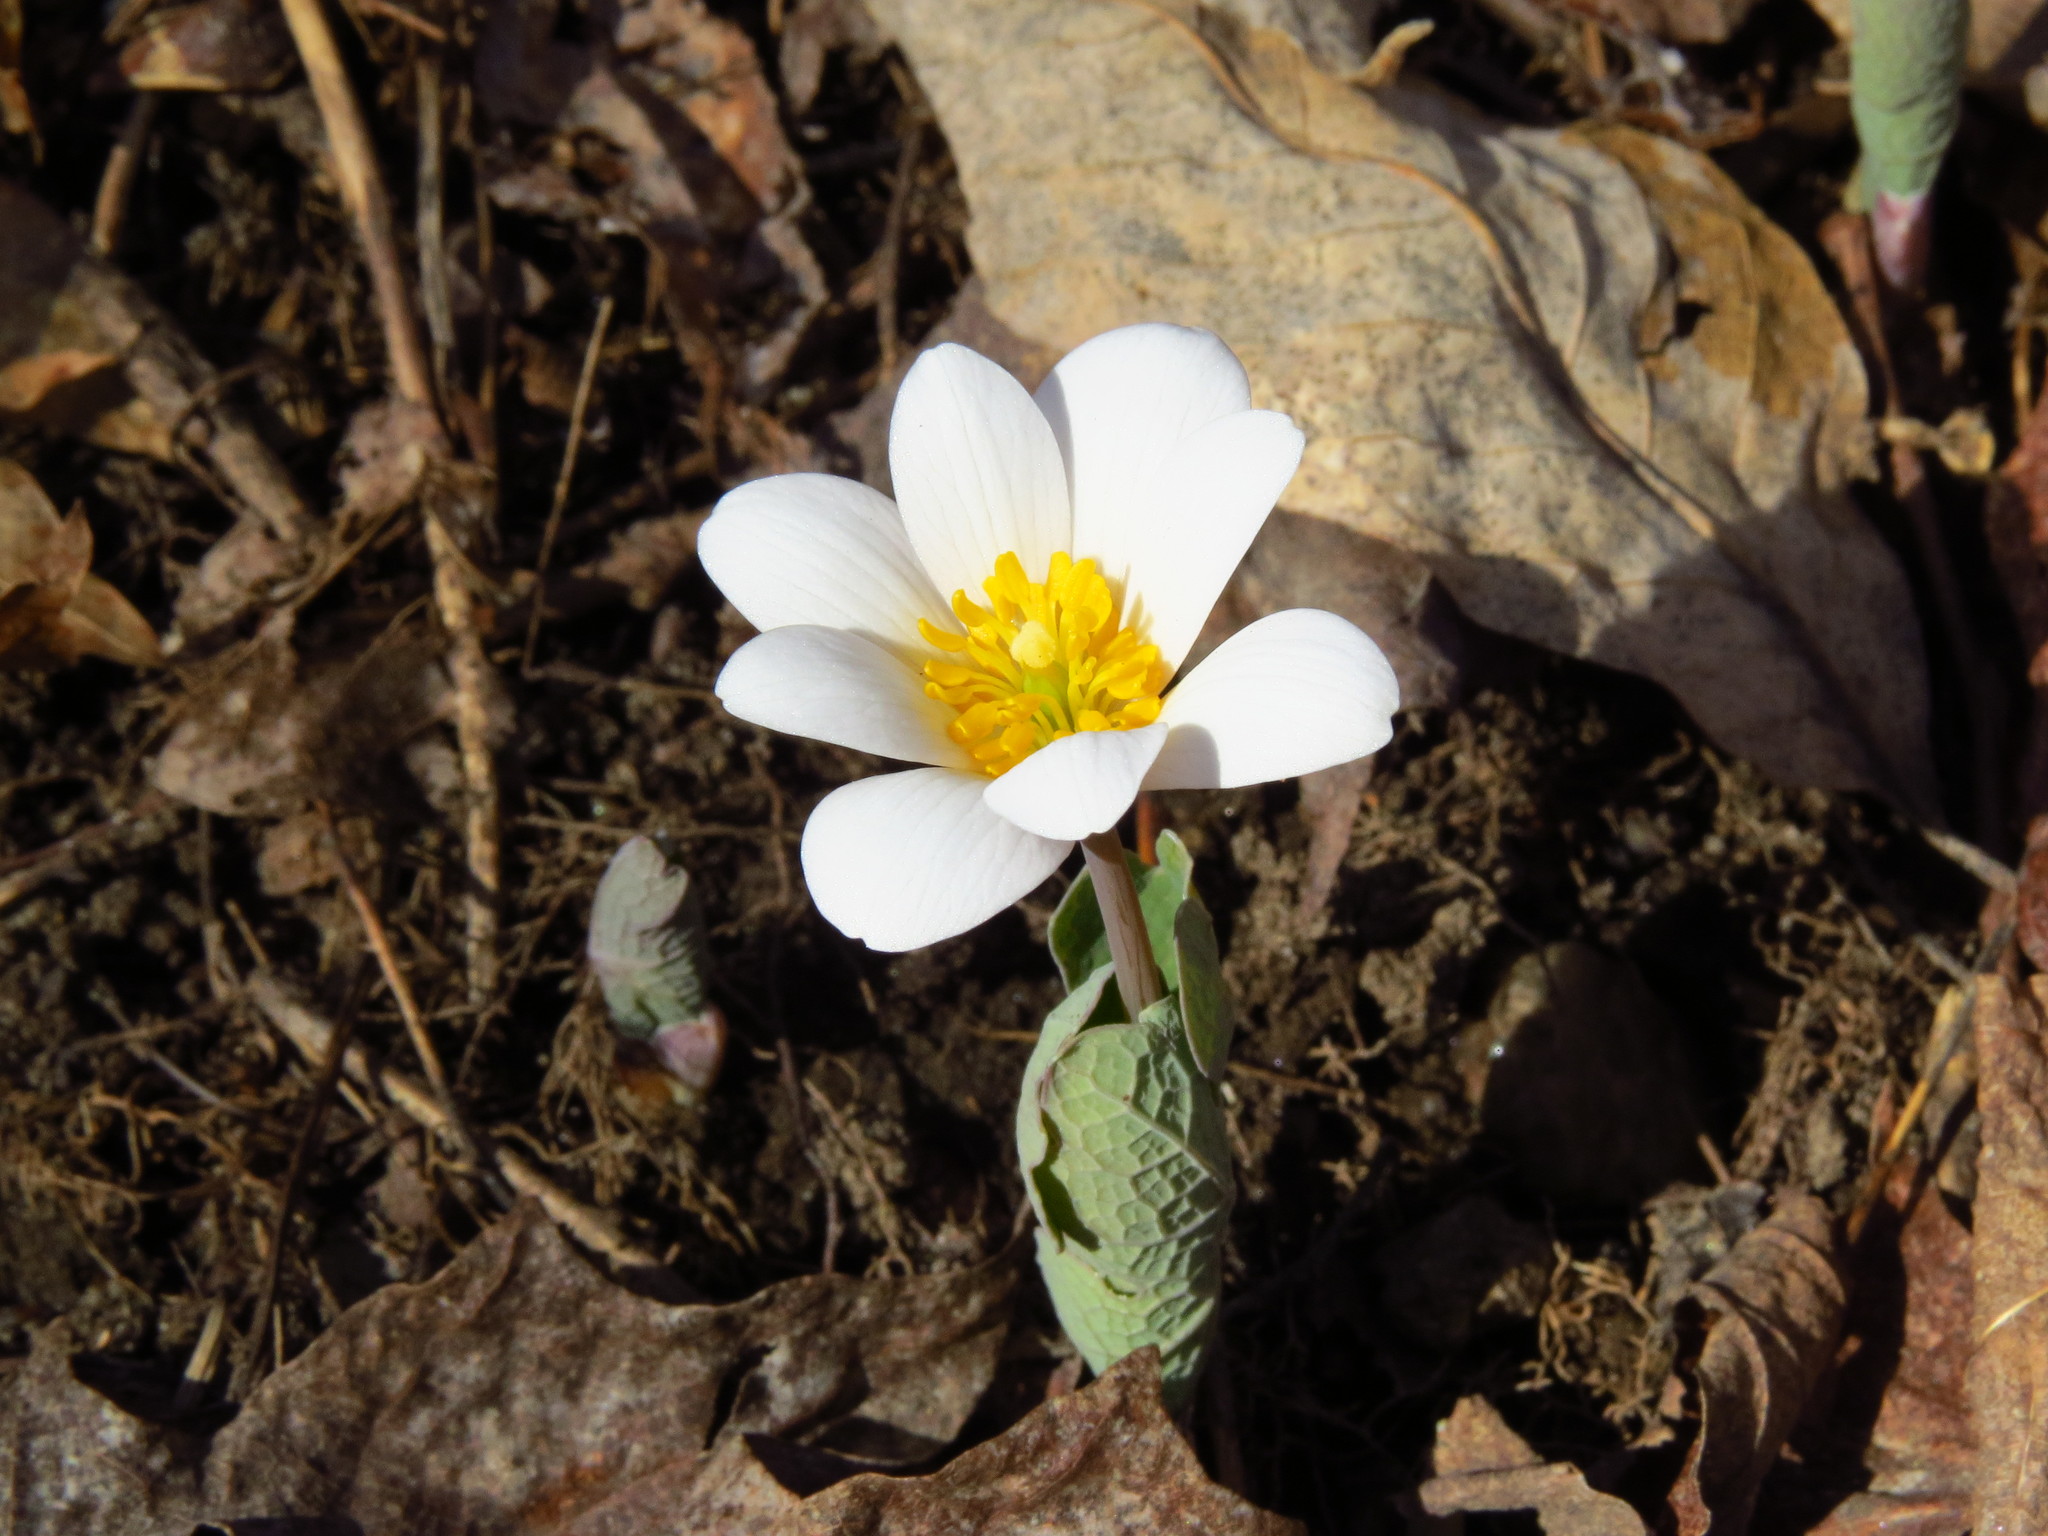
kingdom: Plantae
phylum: Tracheophyta
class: Magnoliopsida
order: Ranunculales
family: Papaveraceae
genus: Sanguinaria
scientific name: Sanguinaria canadensis
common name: Bloodroot
